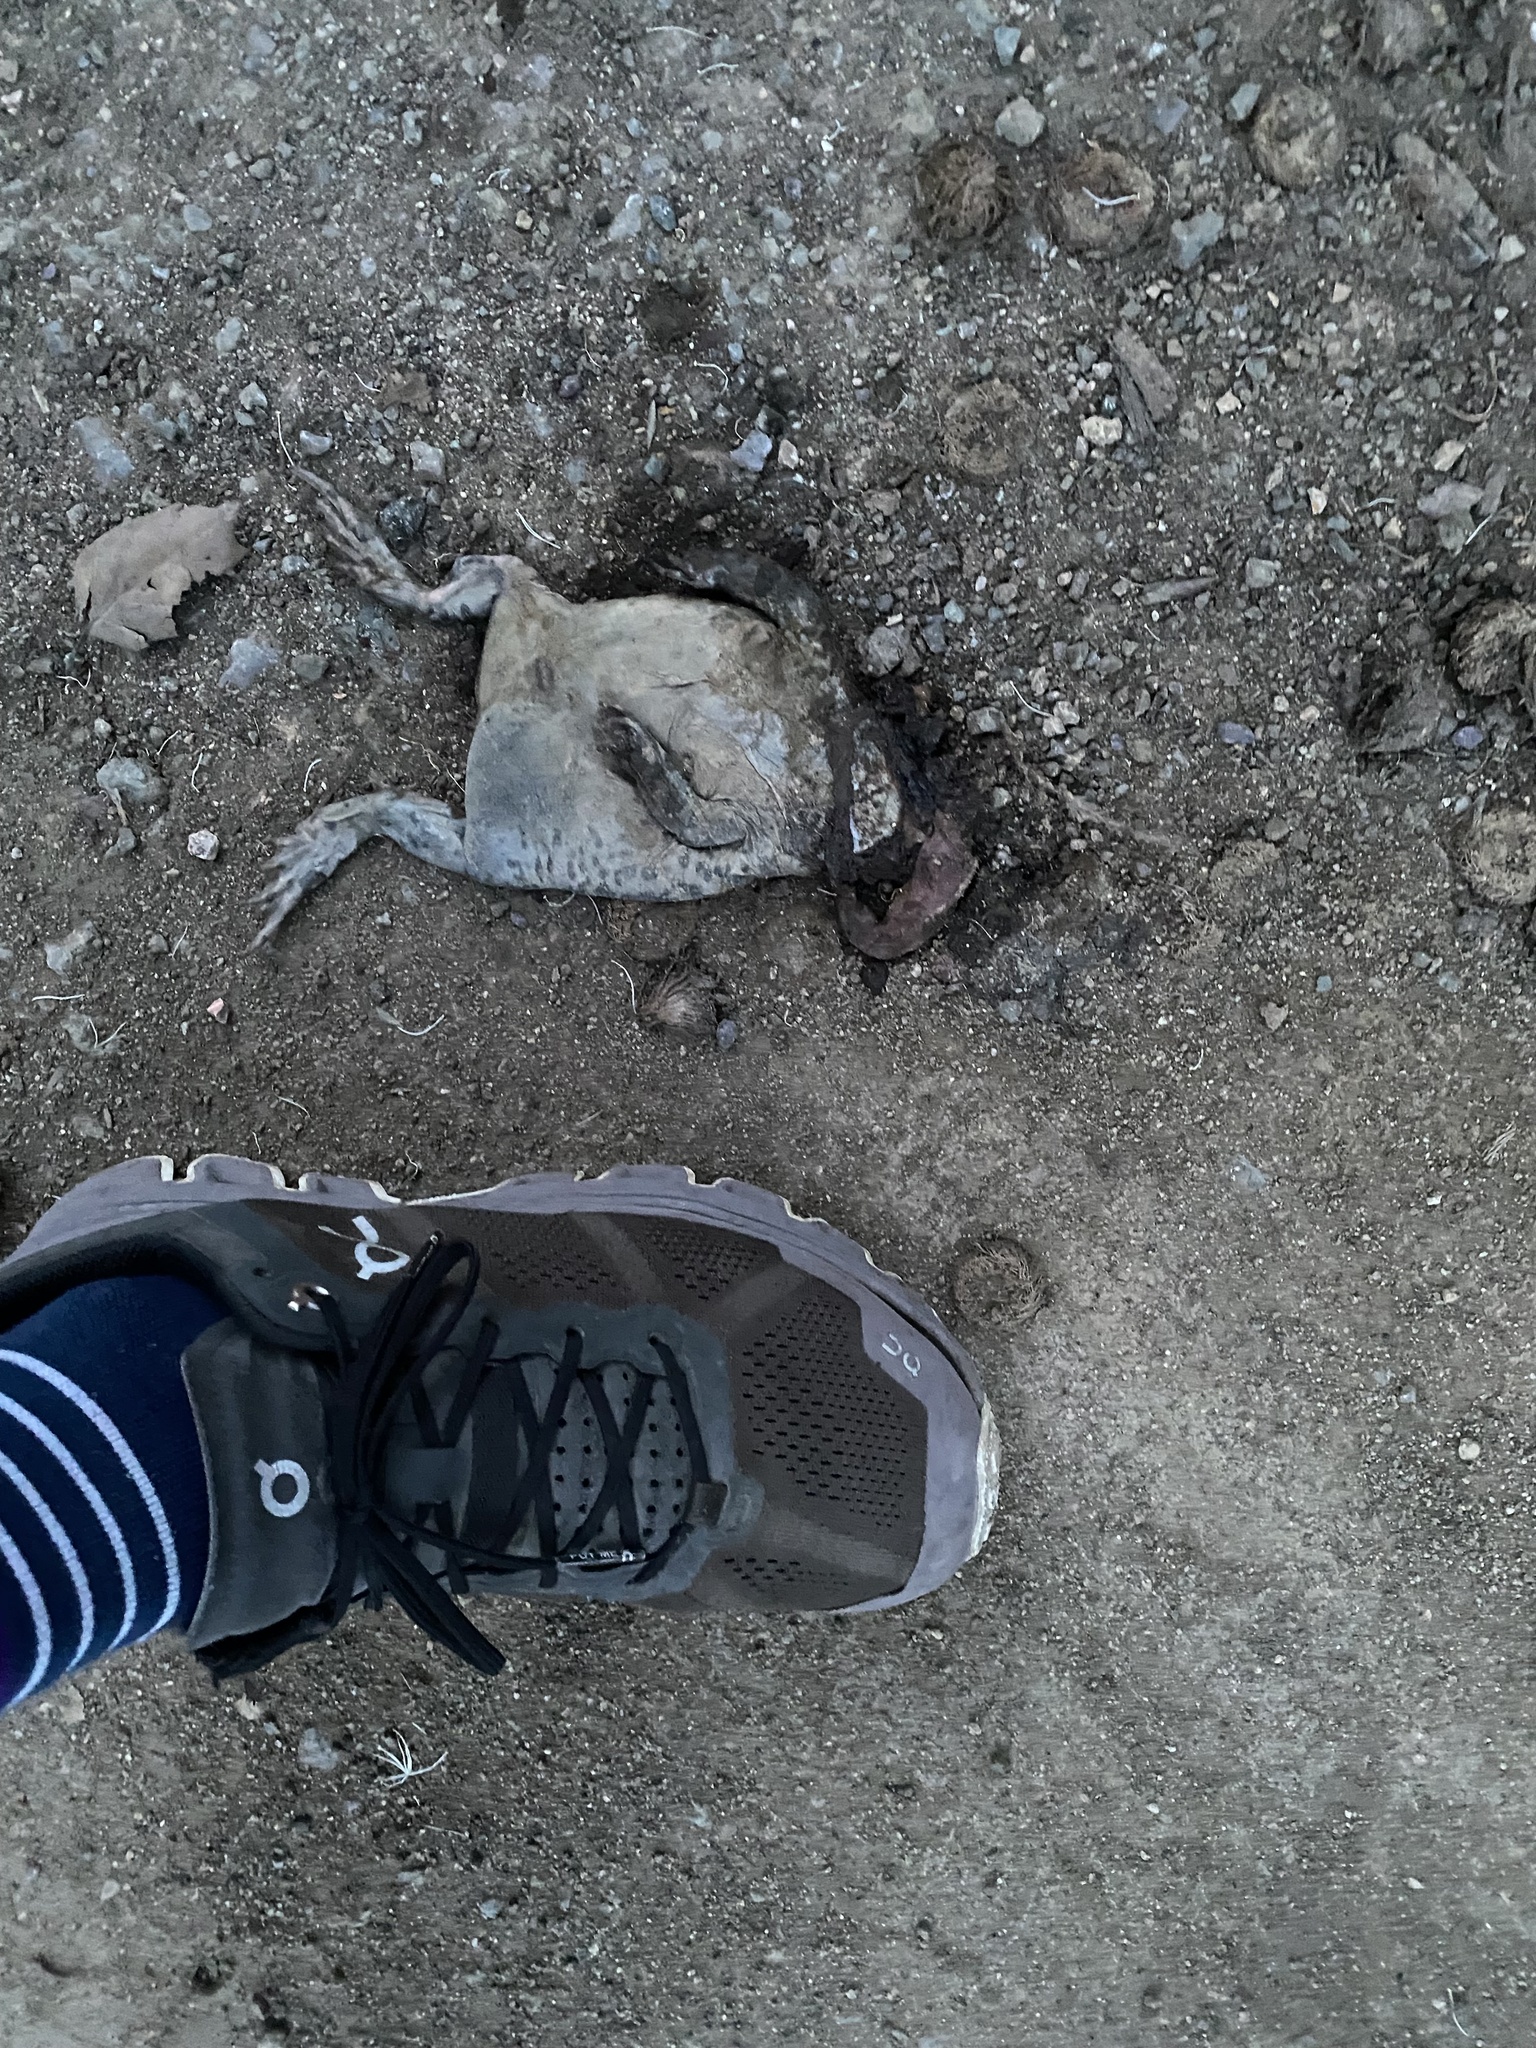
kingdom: Animalia
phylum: Chordata
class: Amphibia
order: Anura
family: Bufonidae
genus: Anaxyrus
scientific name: Anaxyrus boreas
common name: Western toad
